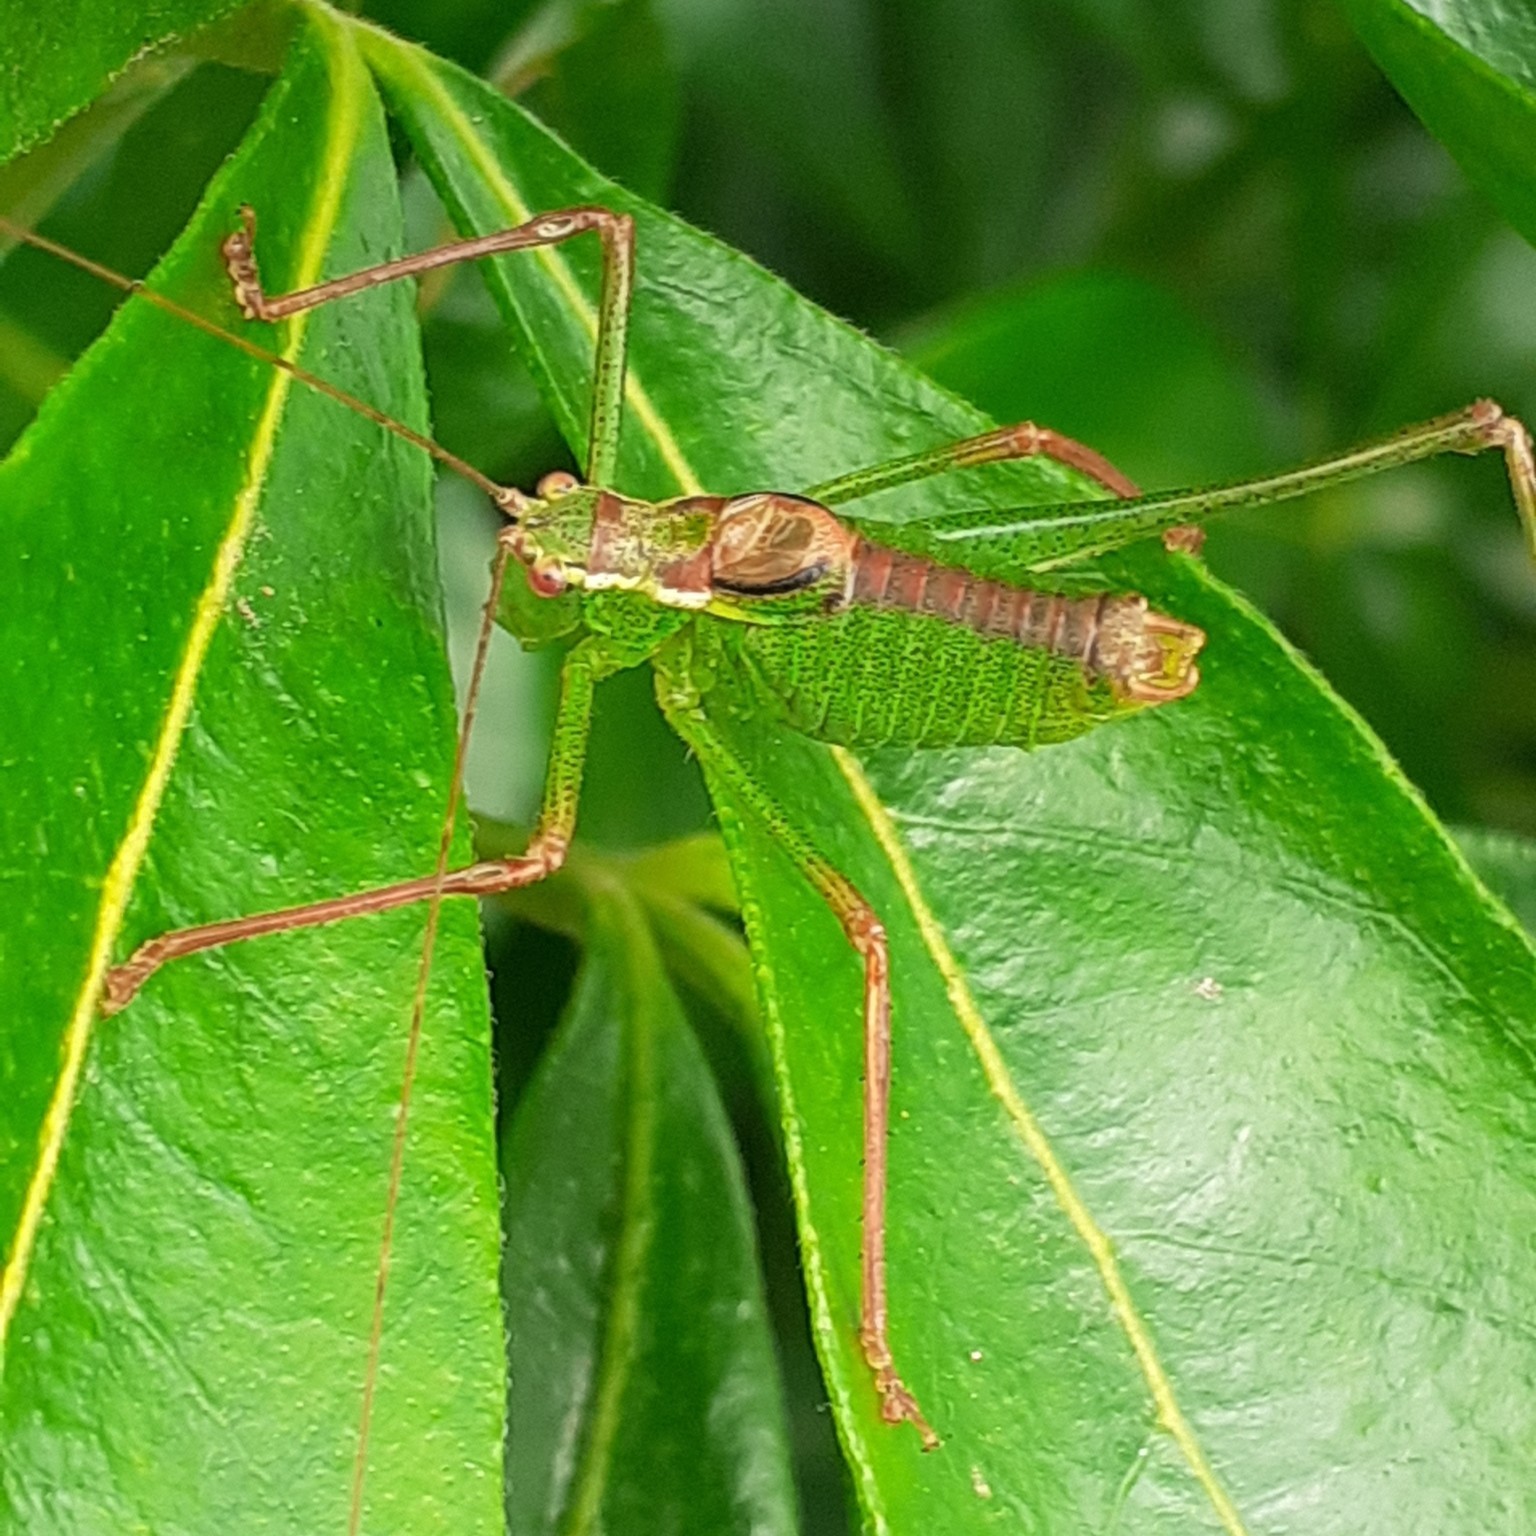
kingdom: Animalia
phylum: Arthropoda
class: Insecta
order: Orthoptera
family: Tettigoniidae
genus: Leptophyes
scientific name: Leptophyes punctatissima
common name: Speckled bush-cricket
